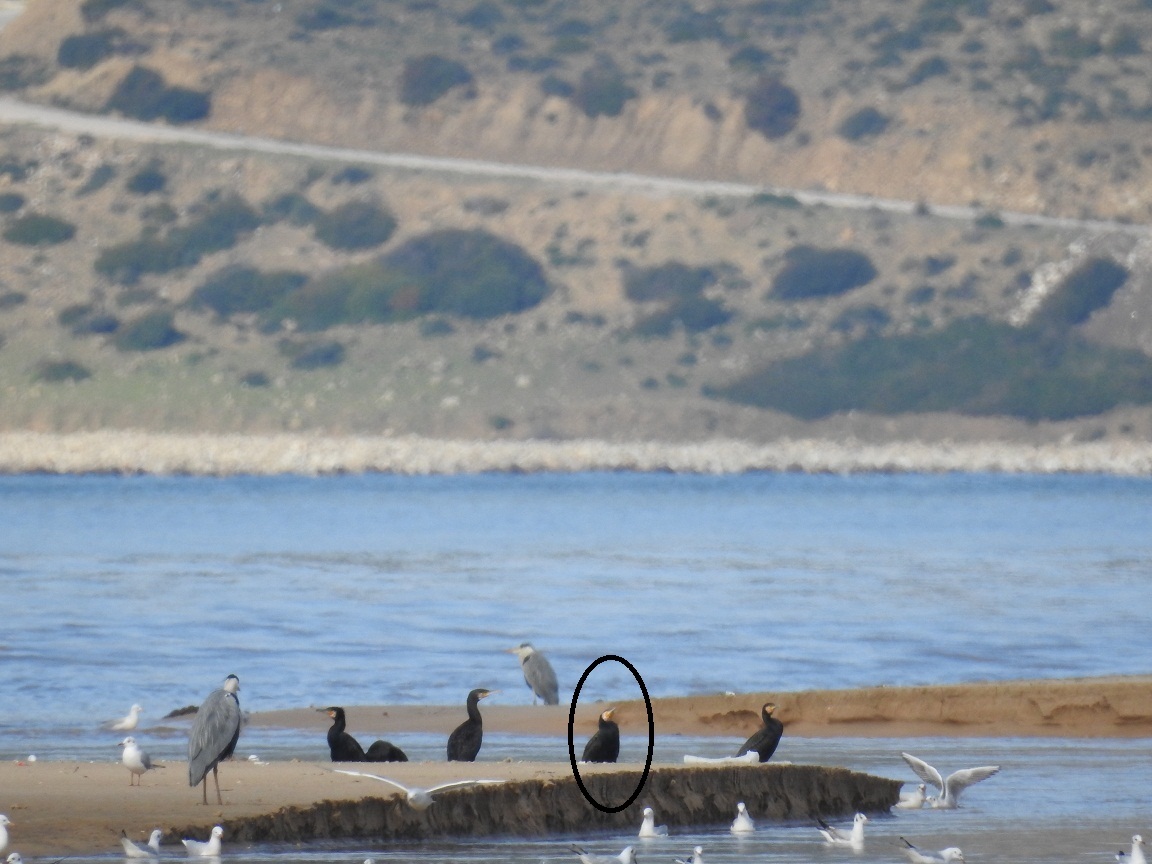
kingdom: Animalia
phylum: Chordata
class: Aves
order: Suliformes
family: Phalacrocoracidae
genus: Phalacrocorax
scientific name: Phalacrocorax carbo
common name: Great cormorant
